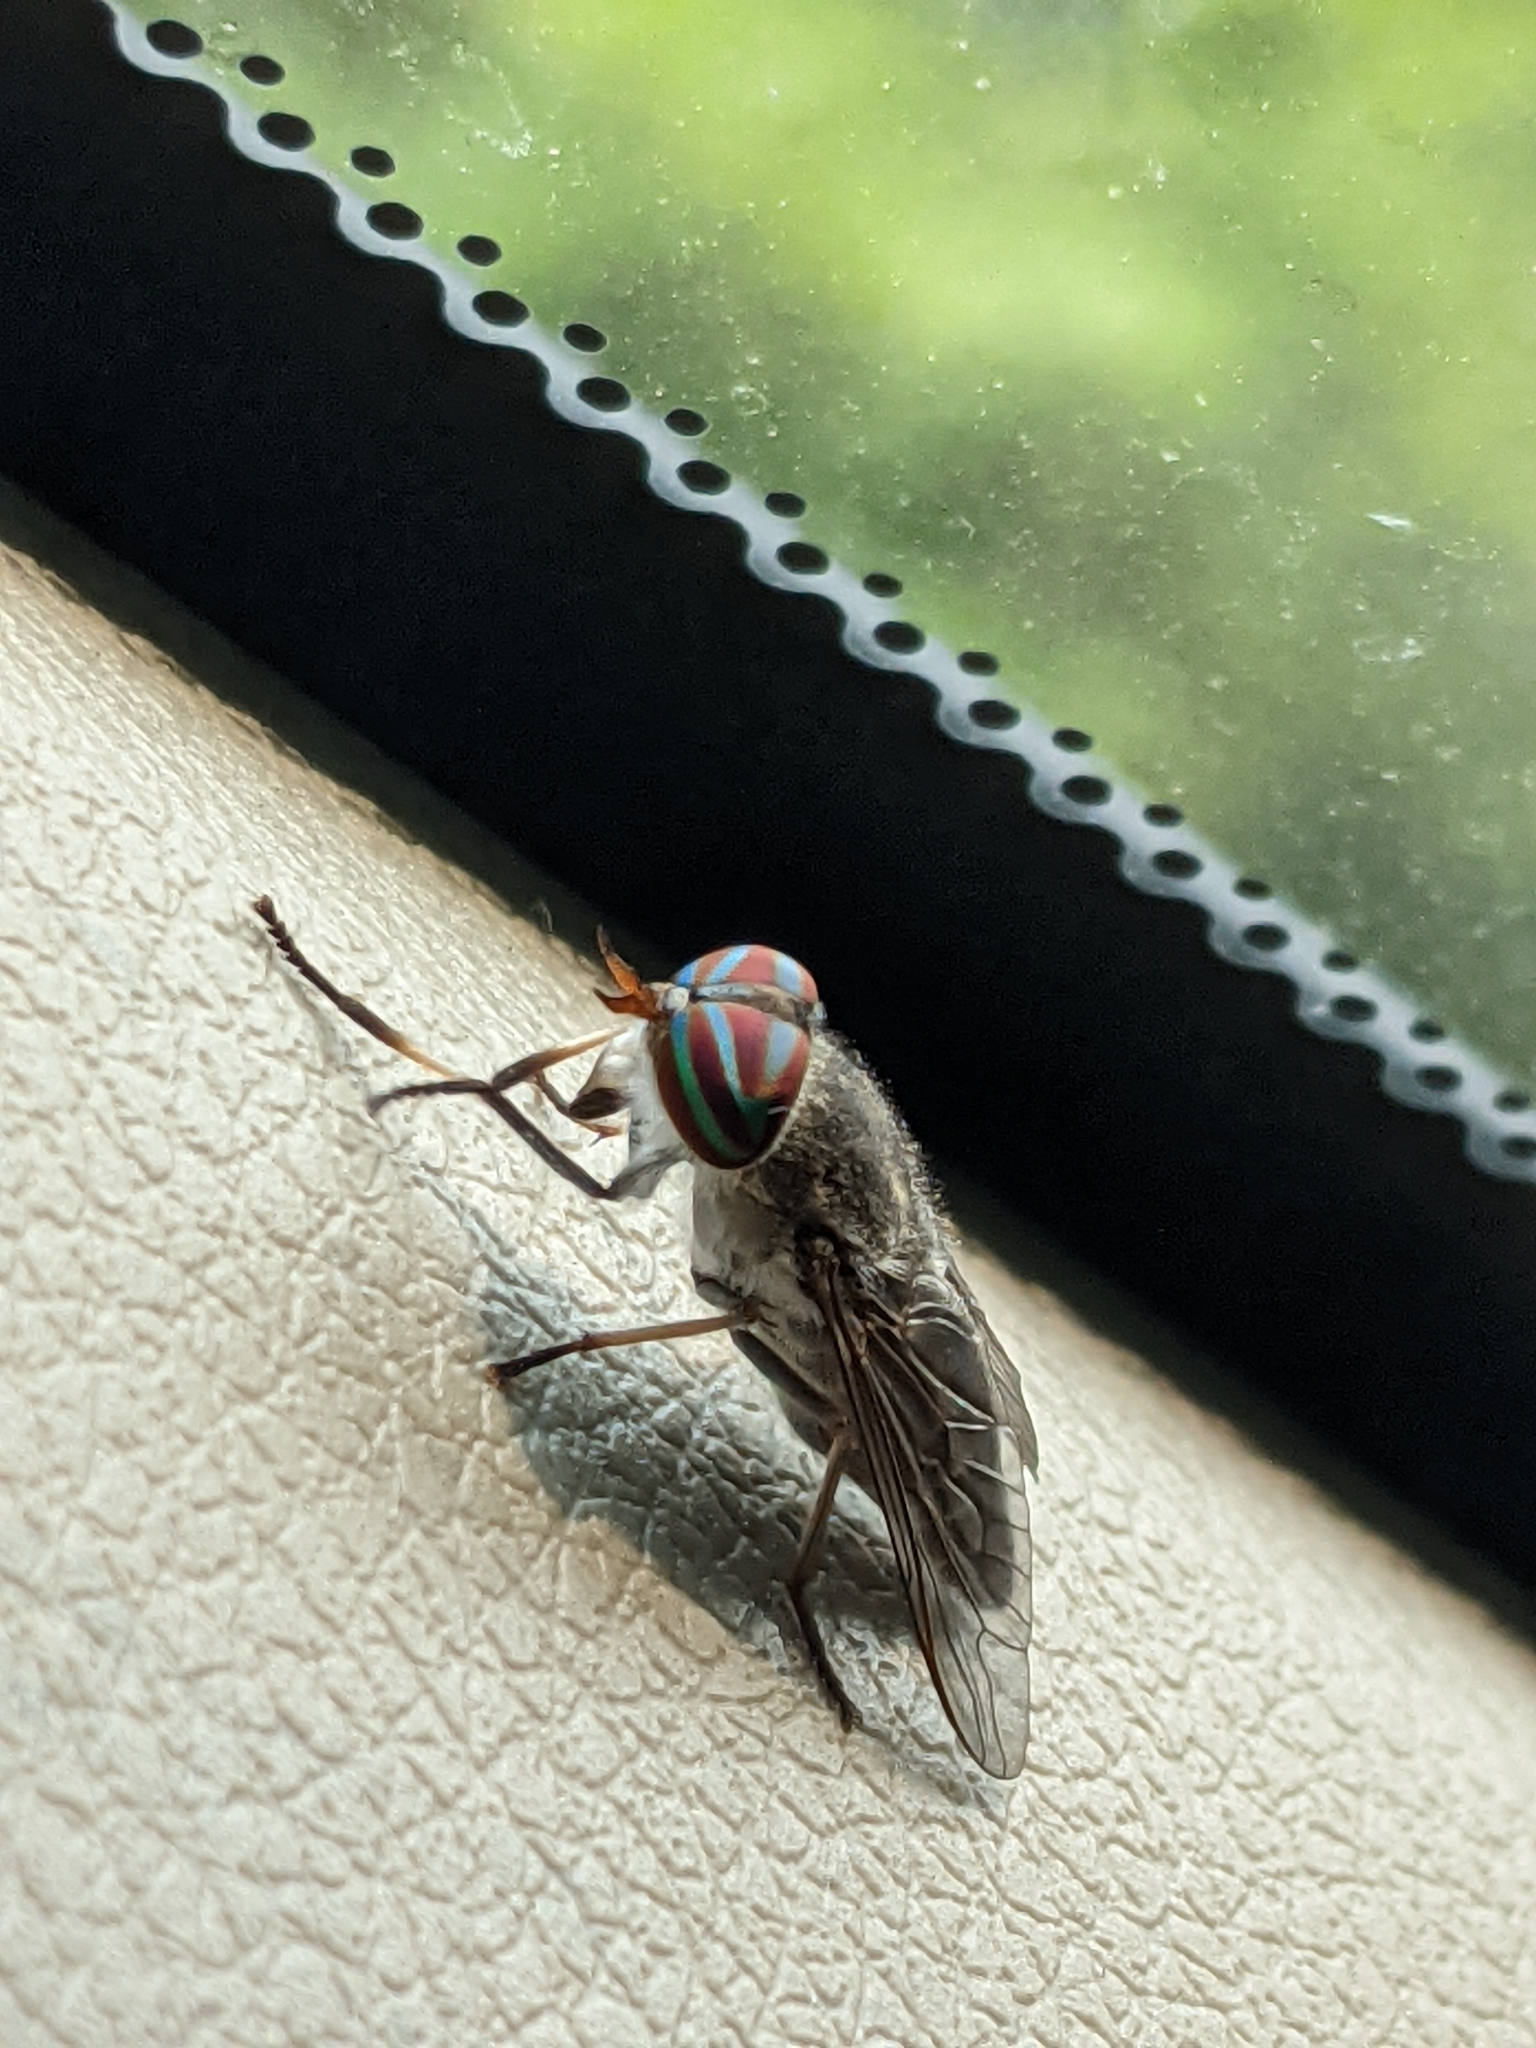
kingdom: Animalia
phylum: Arthropoda
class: Insecta
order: Diptera
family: Tabanidae
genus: Tabanus
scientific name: Tabanus lineola
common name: Striped horse fly
